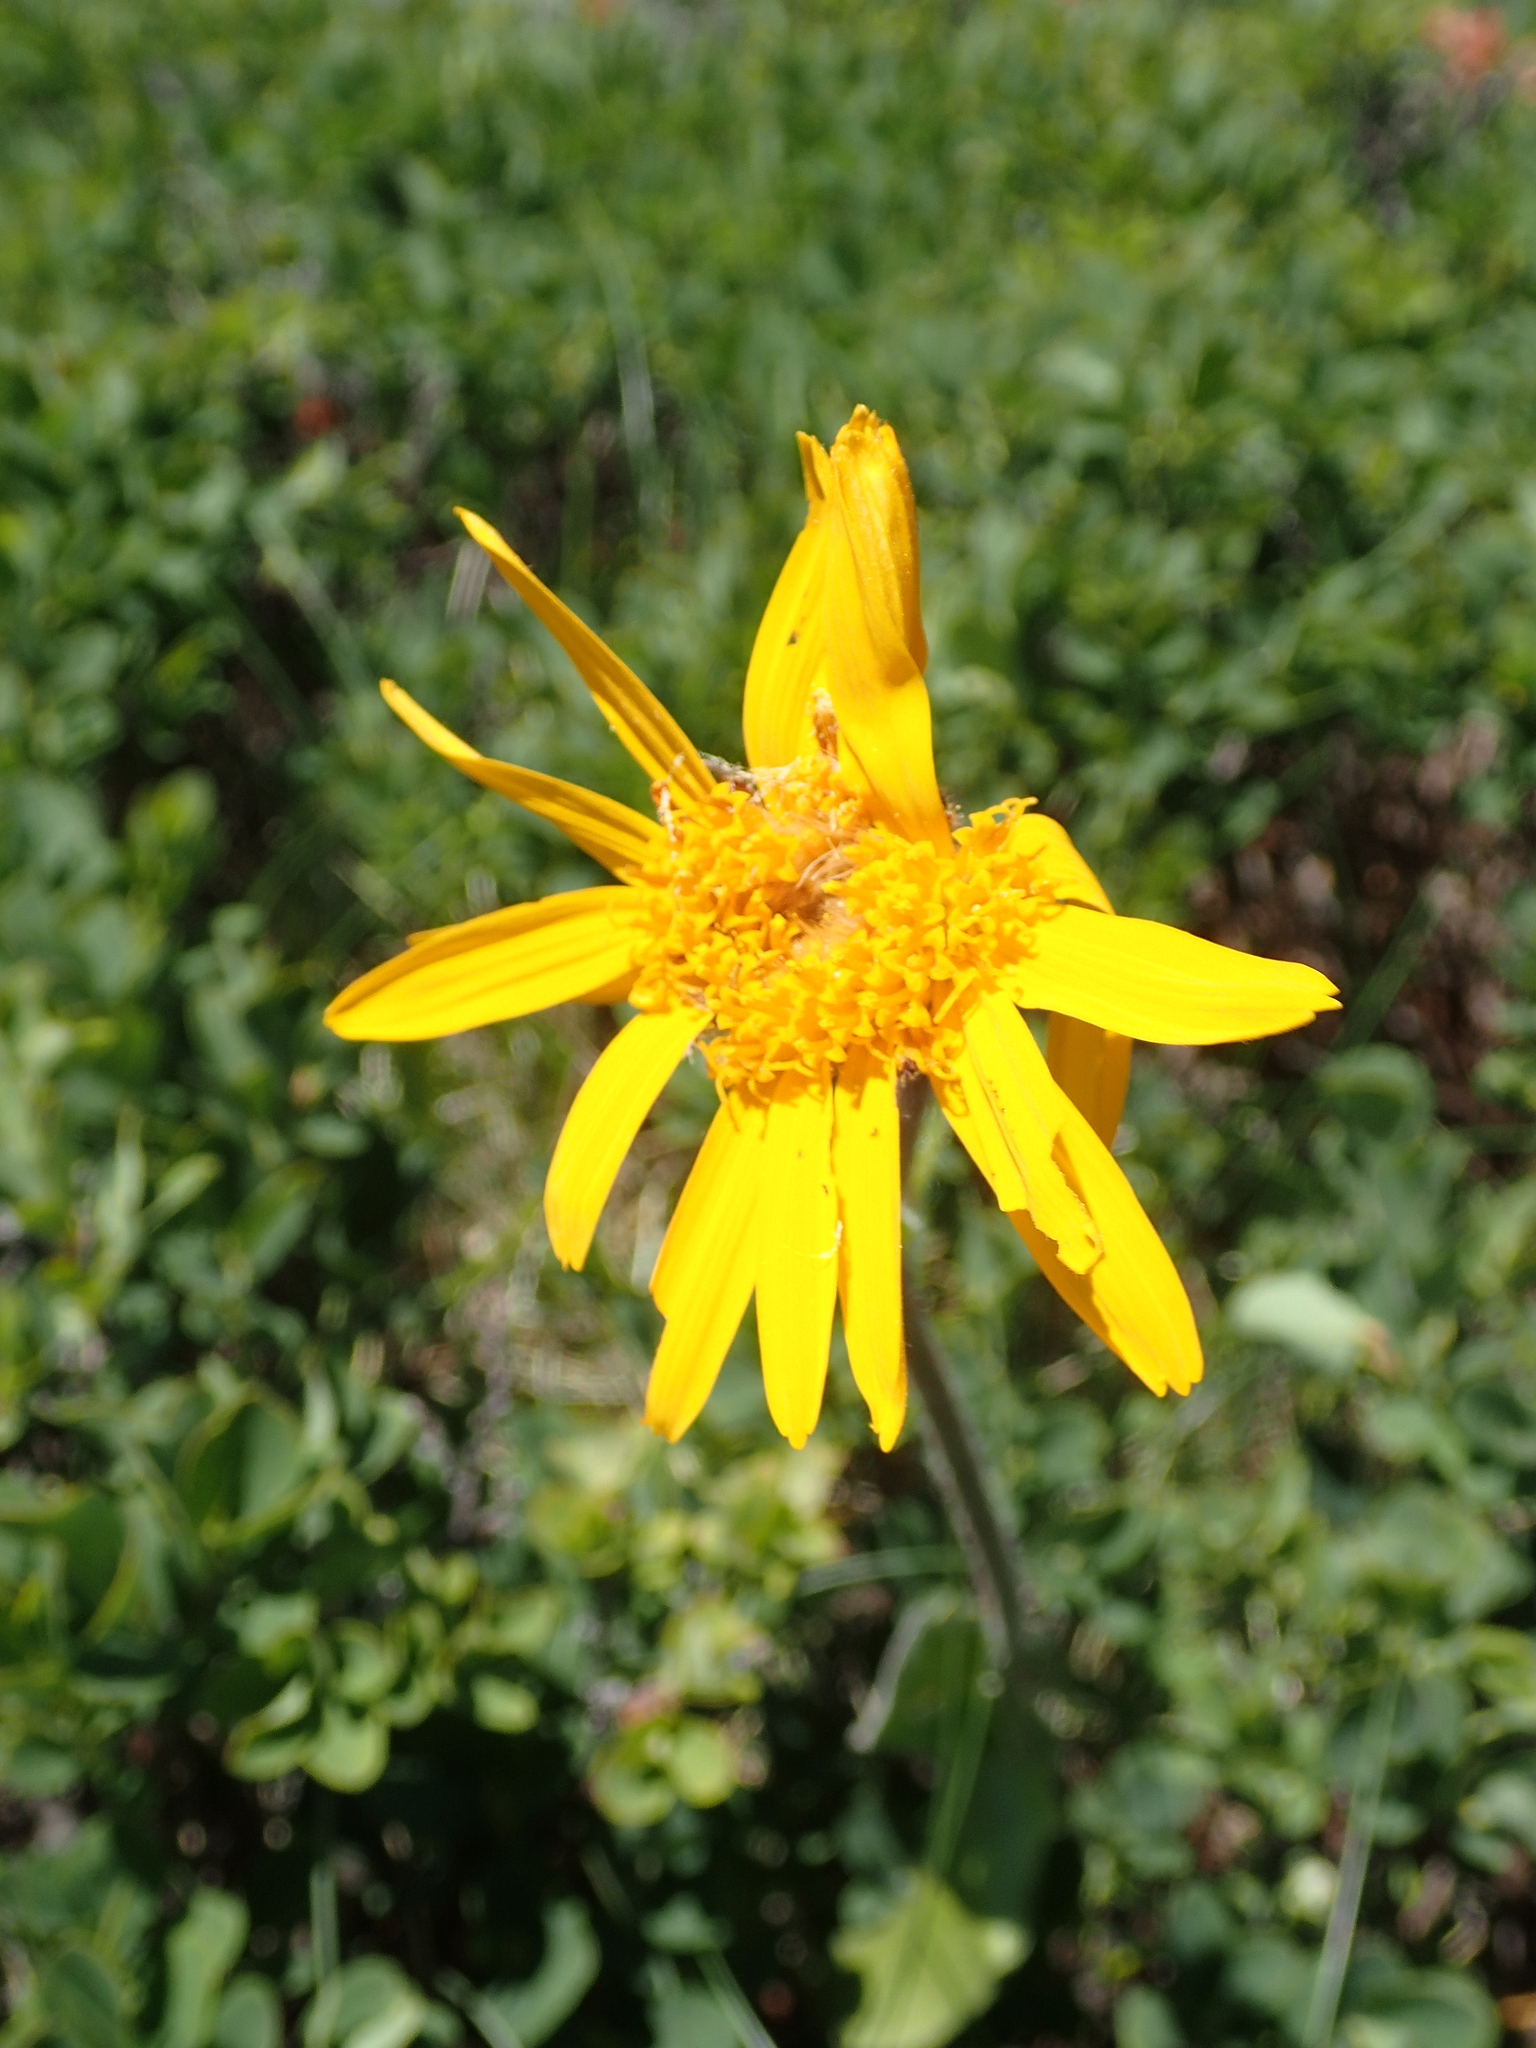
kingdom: Plantae
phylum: Tracheophyta
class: Magnoliopsida
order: Asterales
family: Asteraceae
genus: Arnica
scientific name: Arnica montana
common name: Leopard's bane
